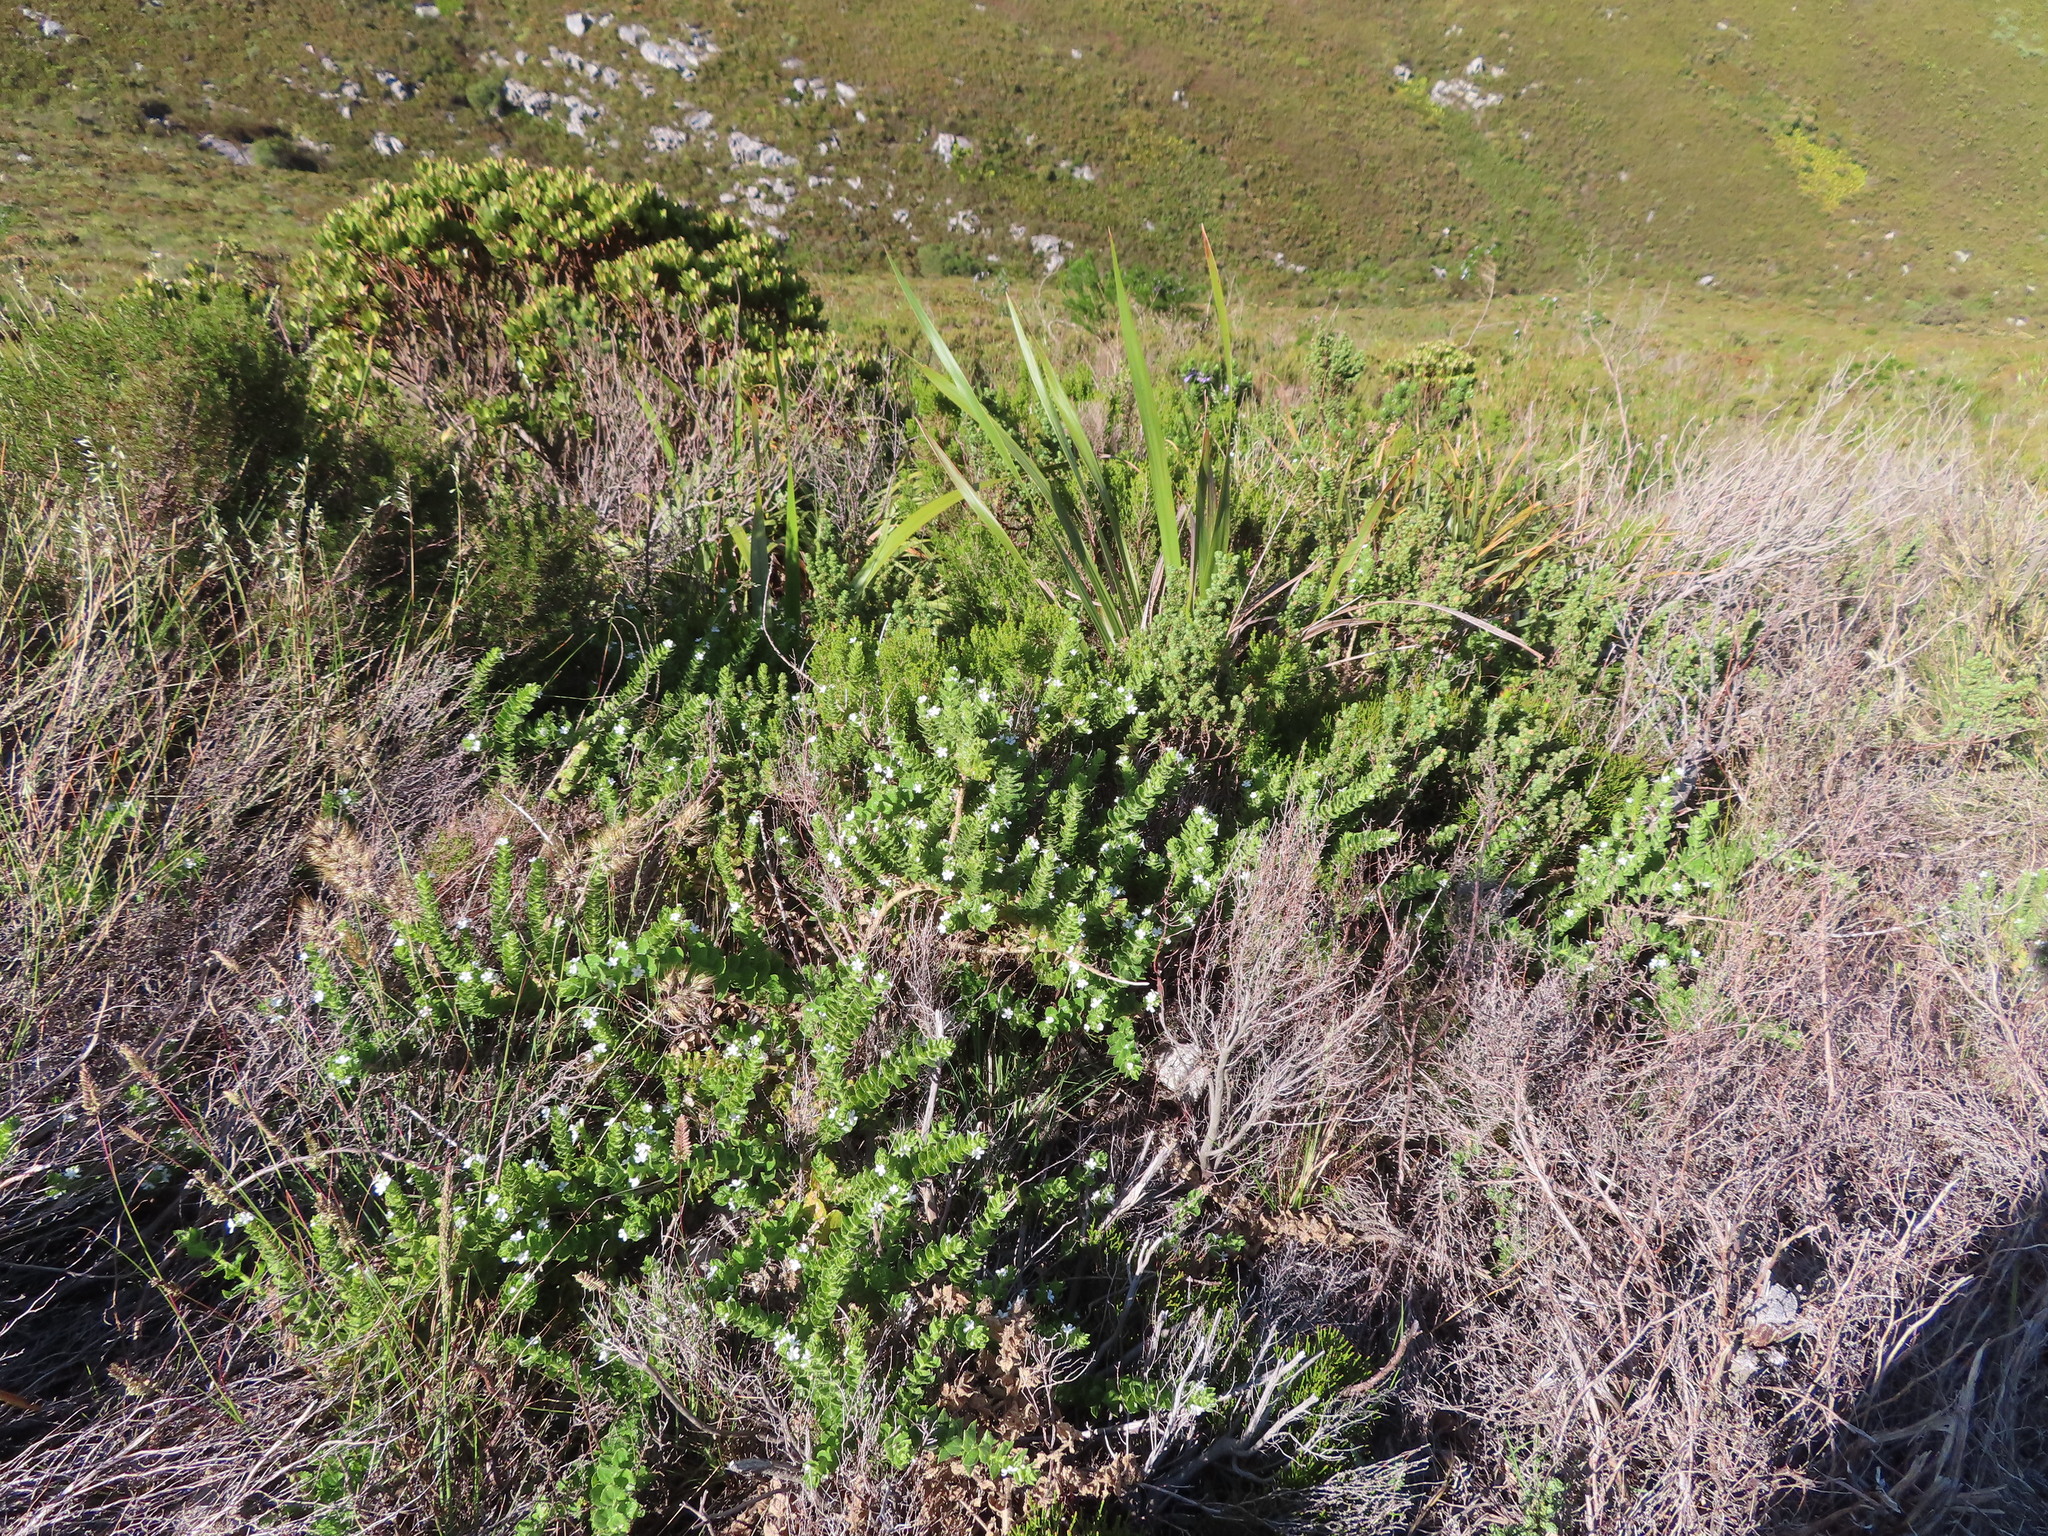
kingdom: Plantae
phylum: Tracheophyta
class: Magnoliopsida
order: Lamiales
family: Scrophulariaceae
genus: Oftia
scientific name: Oftia africana
